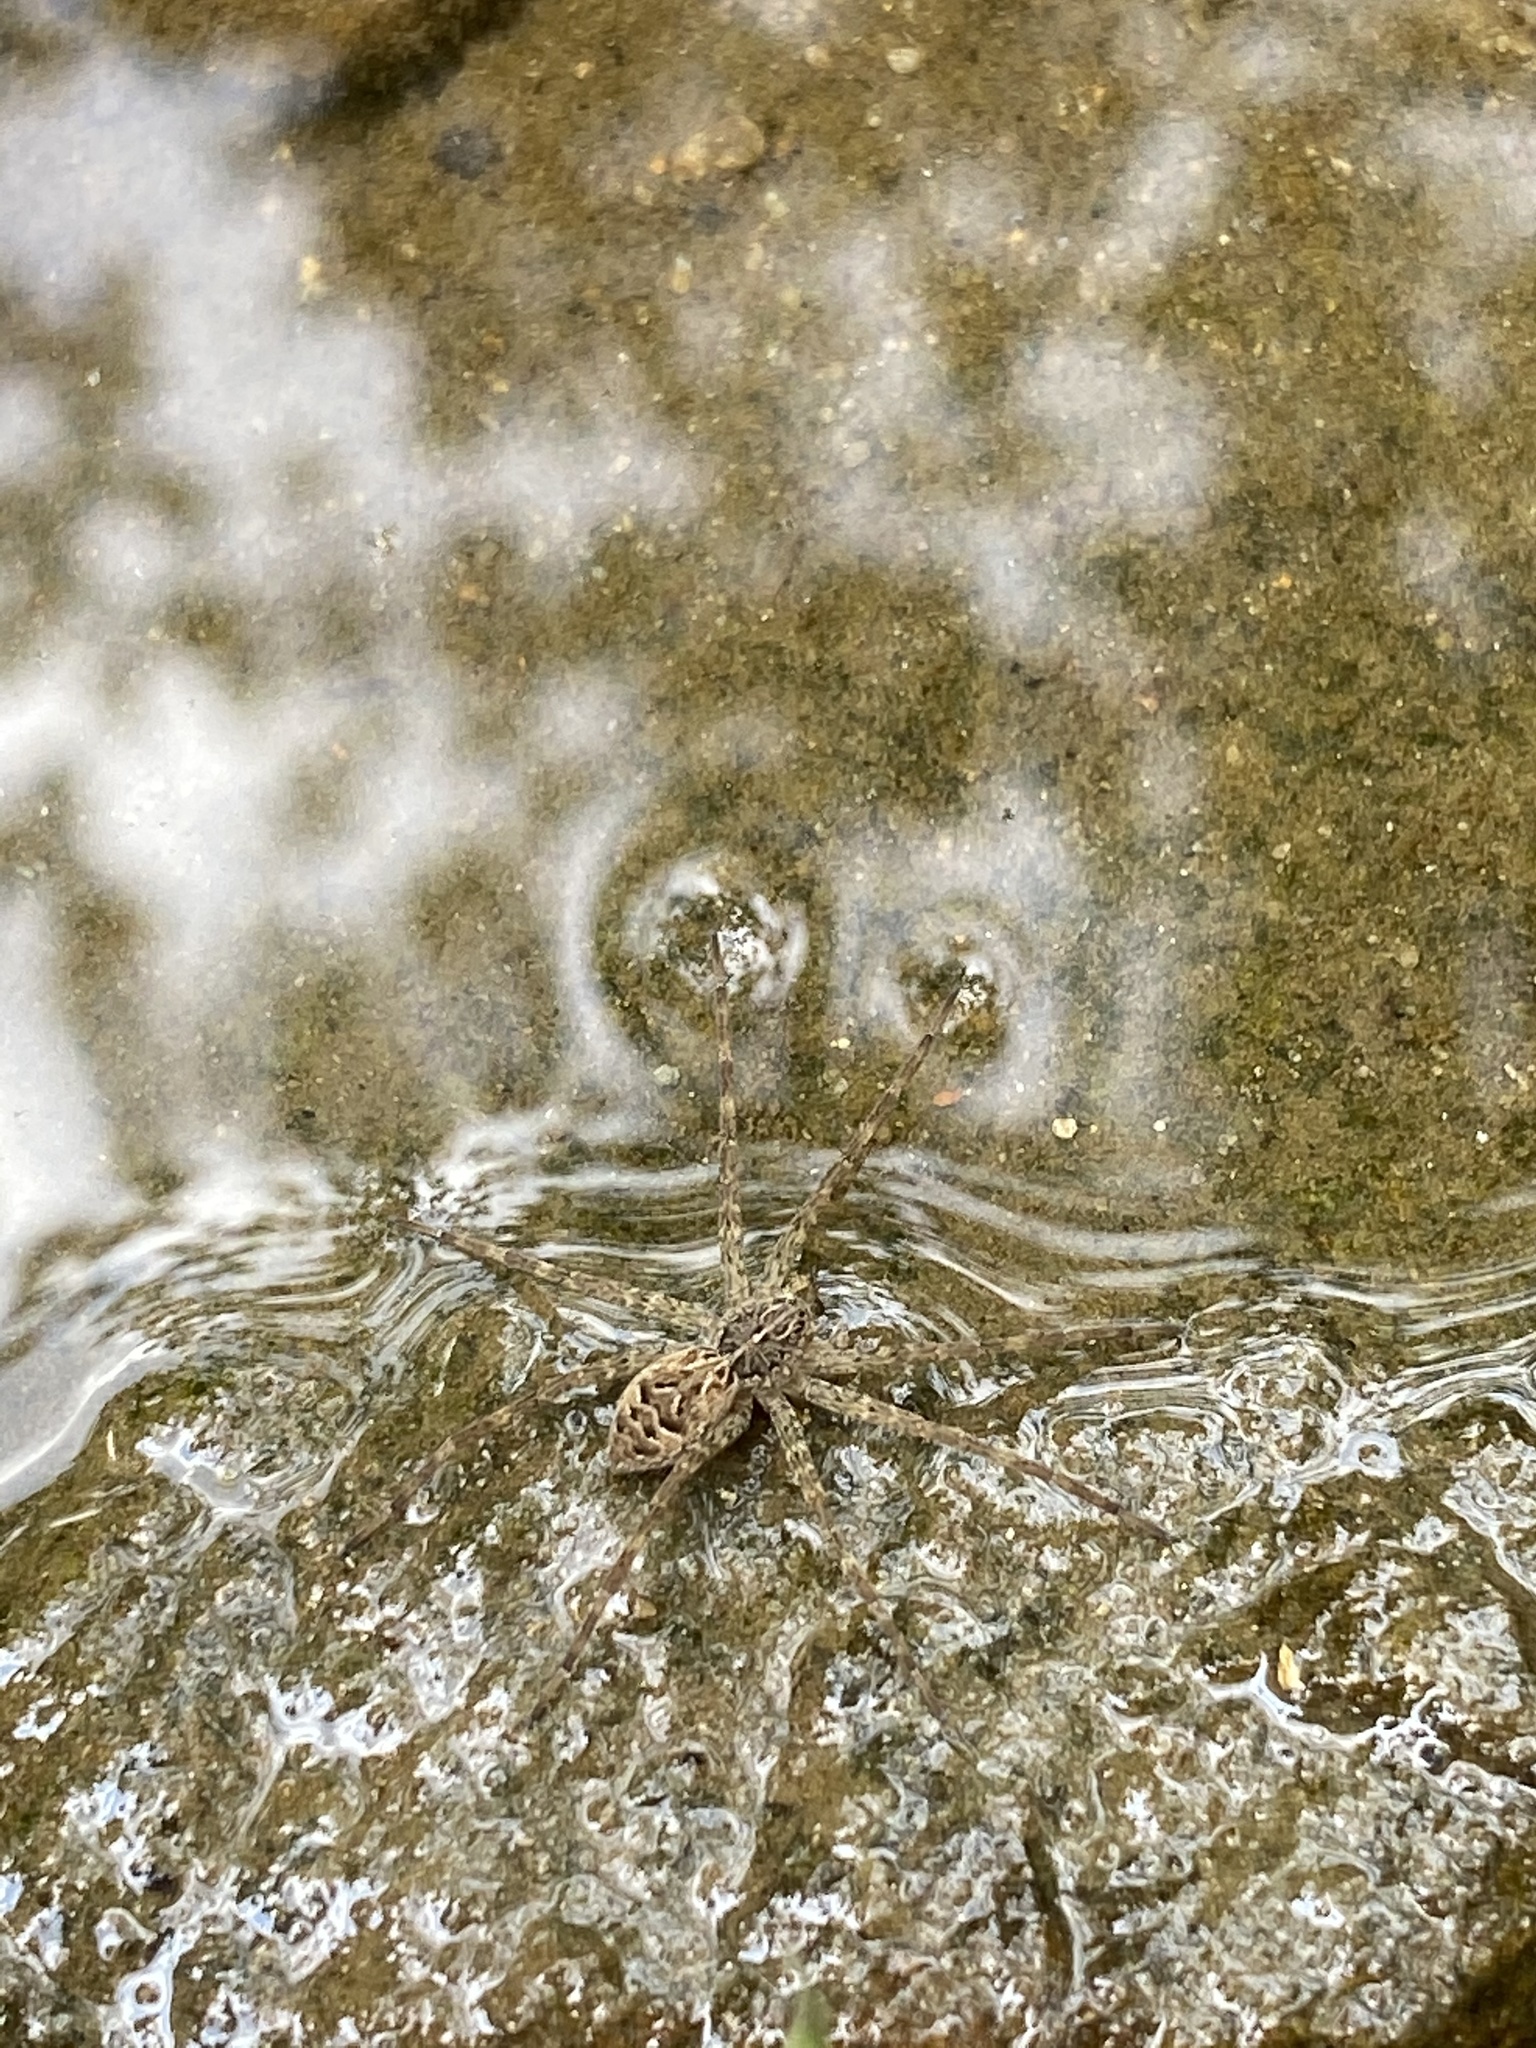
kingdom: Animalia
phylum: Arthropoda
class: Arachnida
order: Araneae
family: Pisauridae
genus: Dolomedes
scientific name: Dolomedes scriptus
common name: Striped fishing spider
